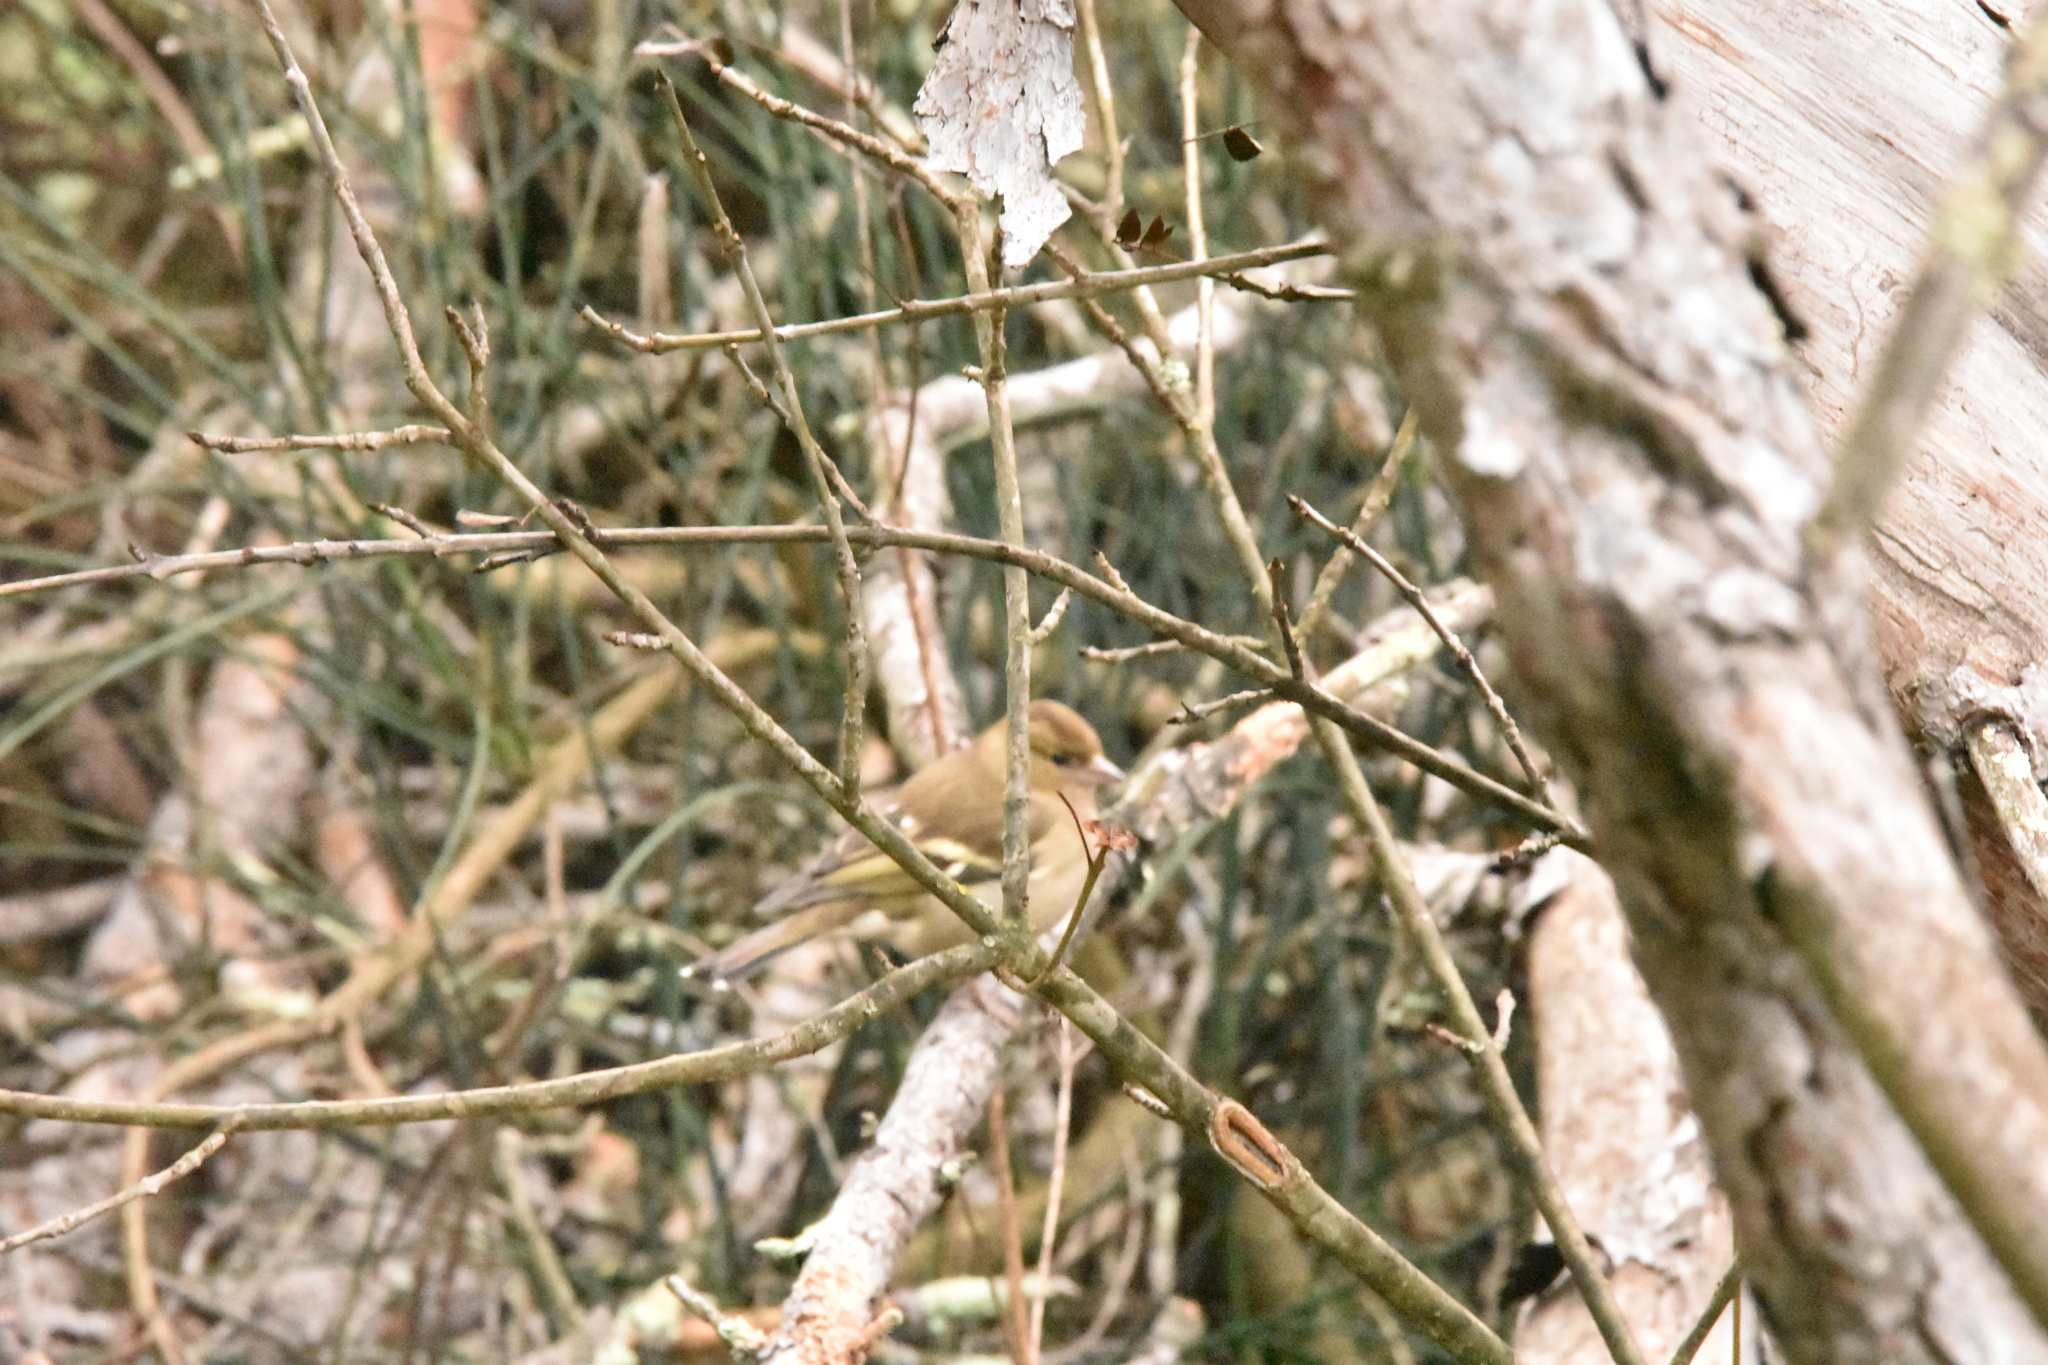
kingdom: Animalia
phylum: Chordata
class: Aves
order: Passeriformes
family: Fringillidae
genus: Fringilla
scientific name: Fringilla coelebs
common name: Common chaffinch
